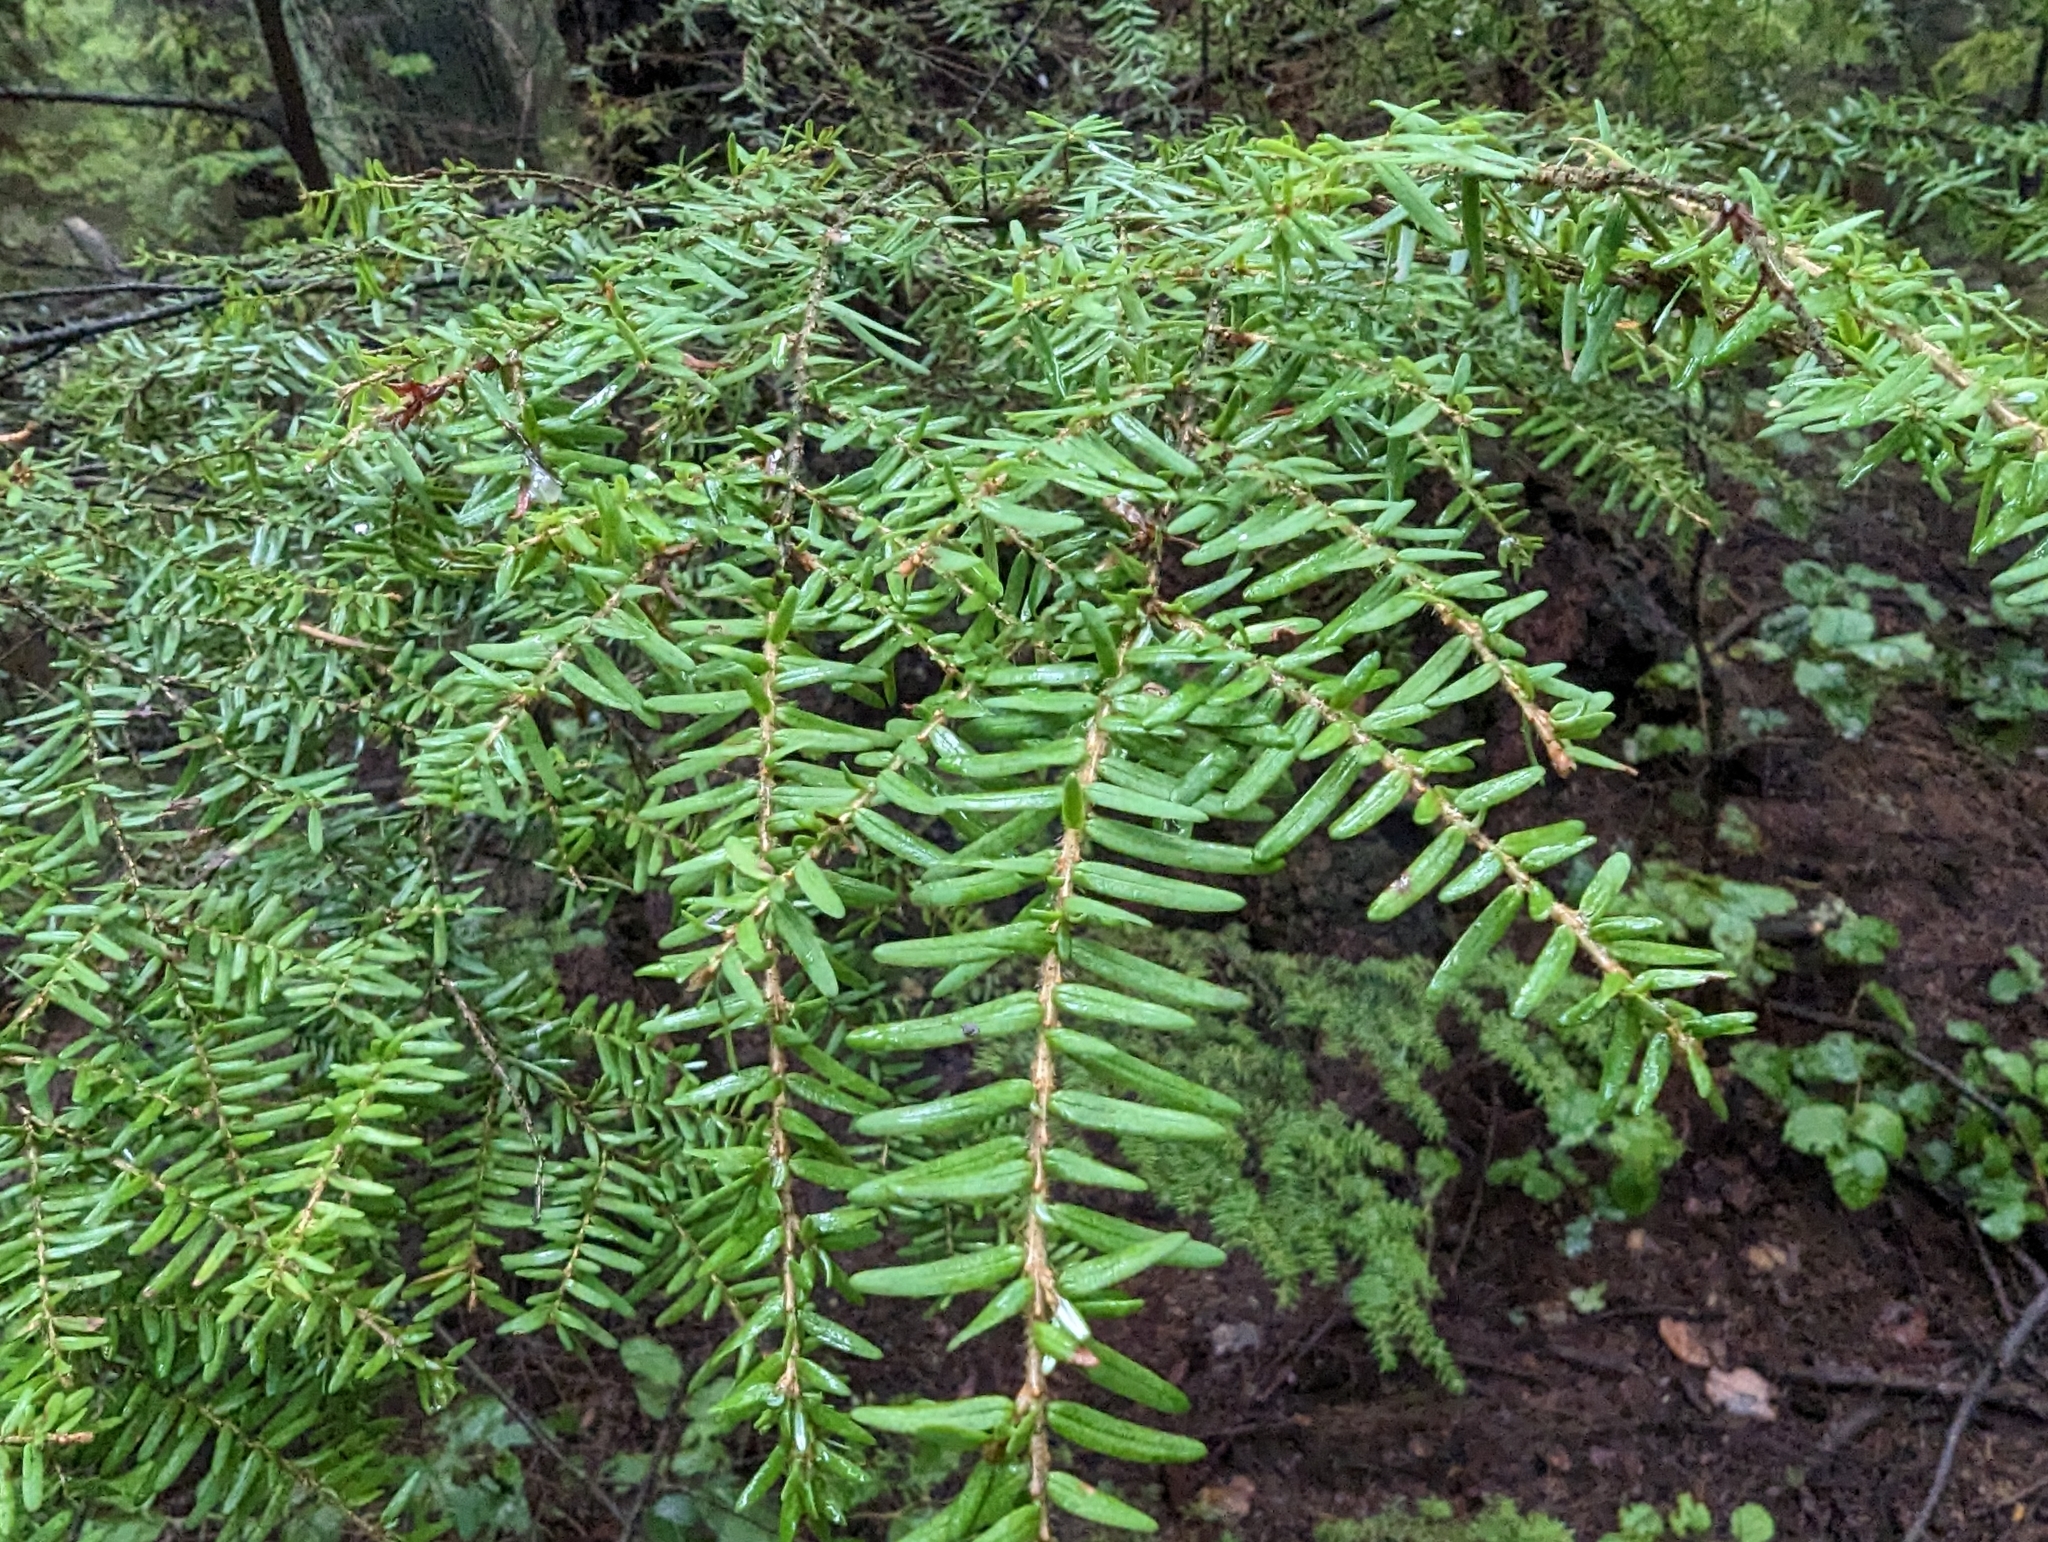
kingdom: Plantae
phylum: Tracheophyta
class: Pinopsida
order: Pinales
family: Pinaceae
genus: Tsuga
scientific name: Tsuga heterophylla
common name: Western hemlock
